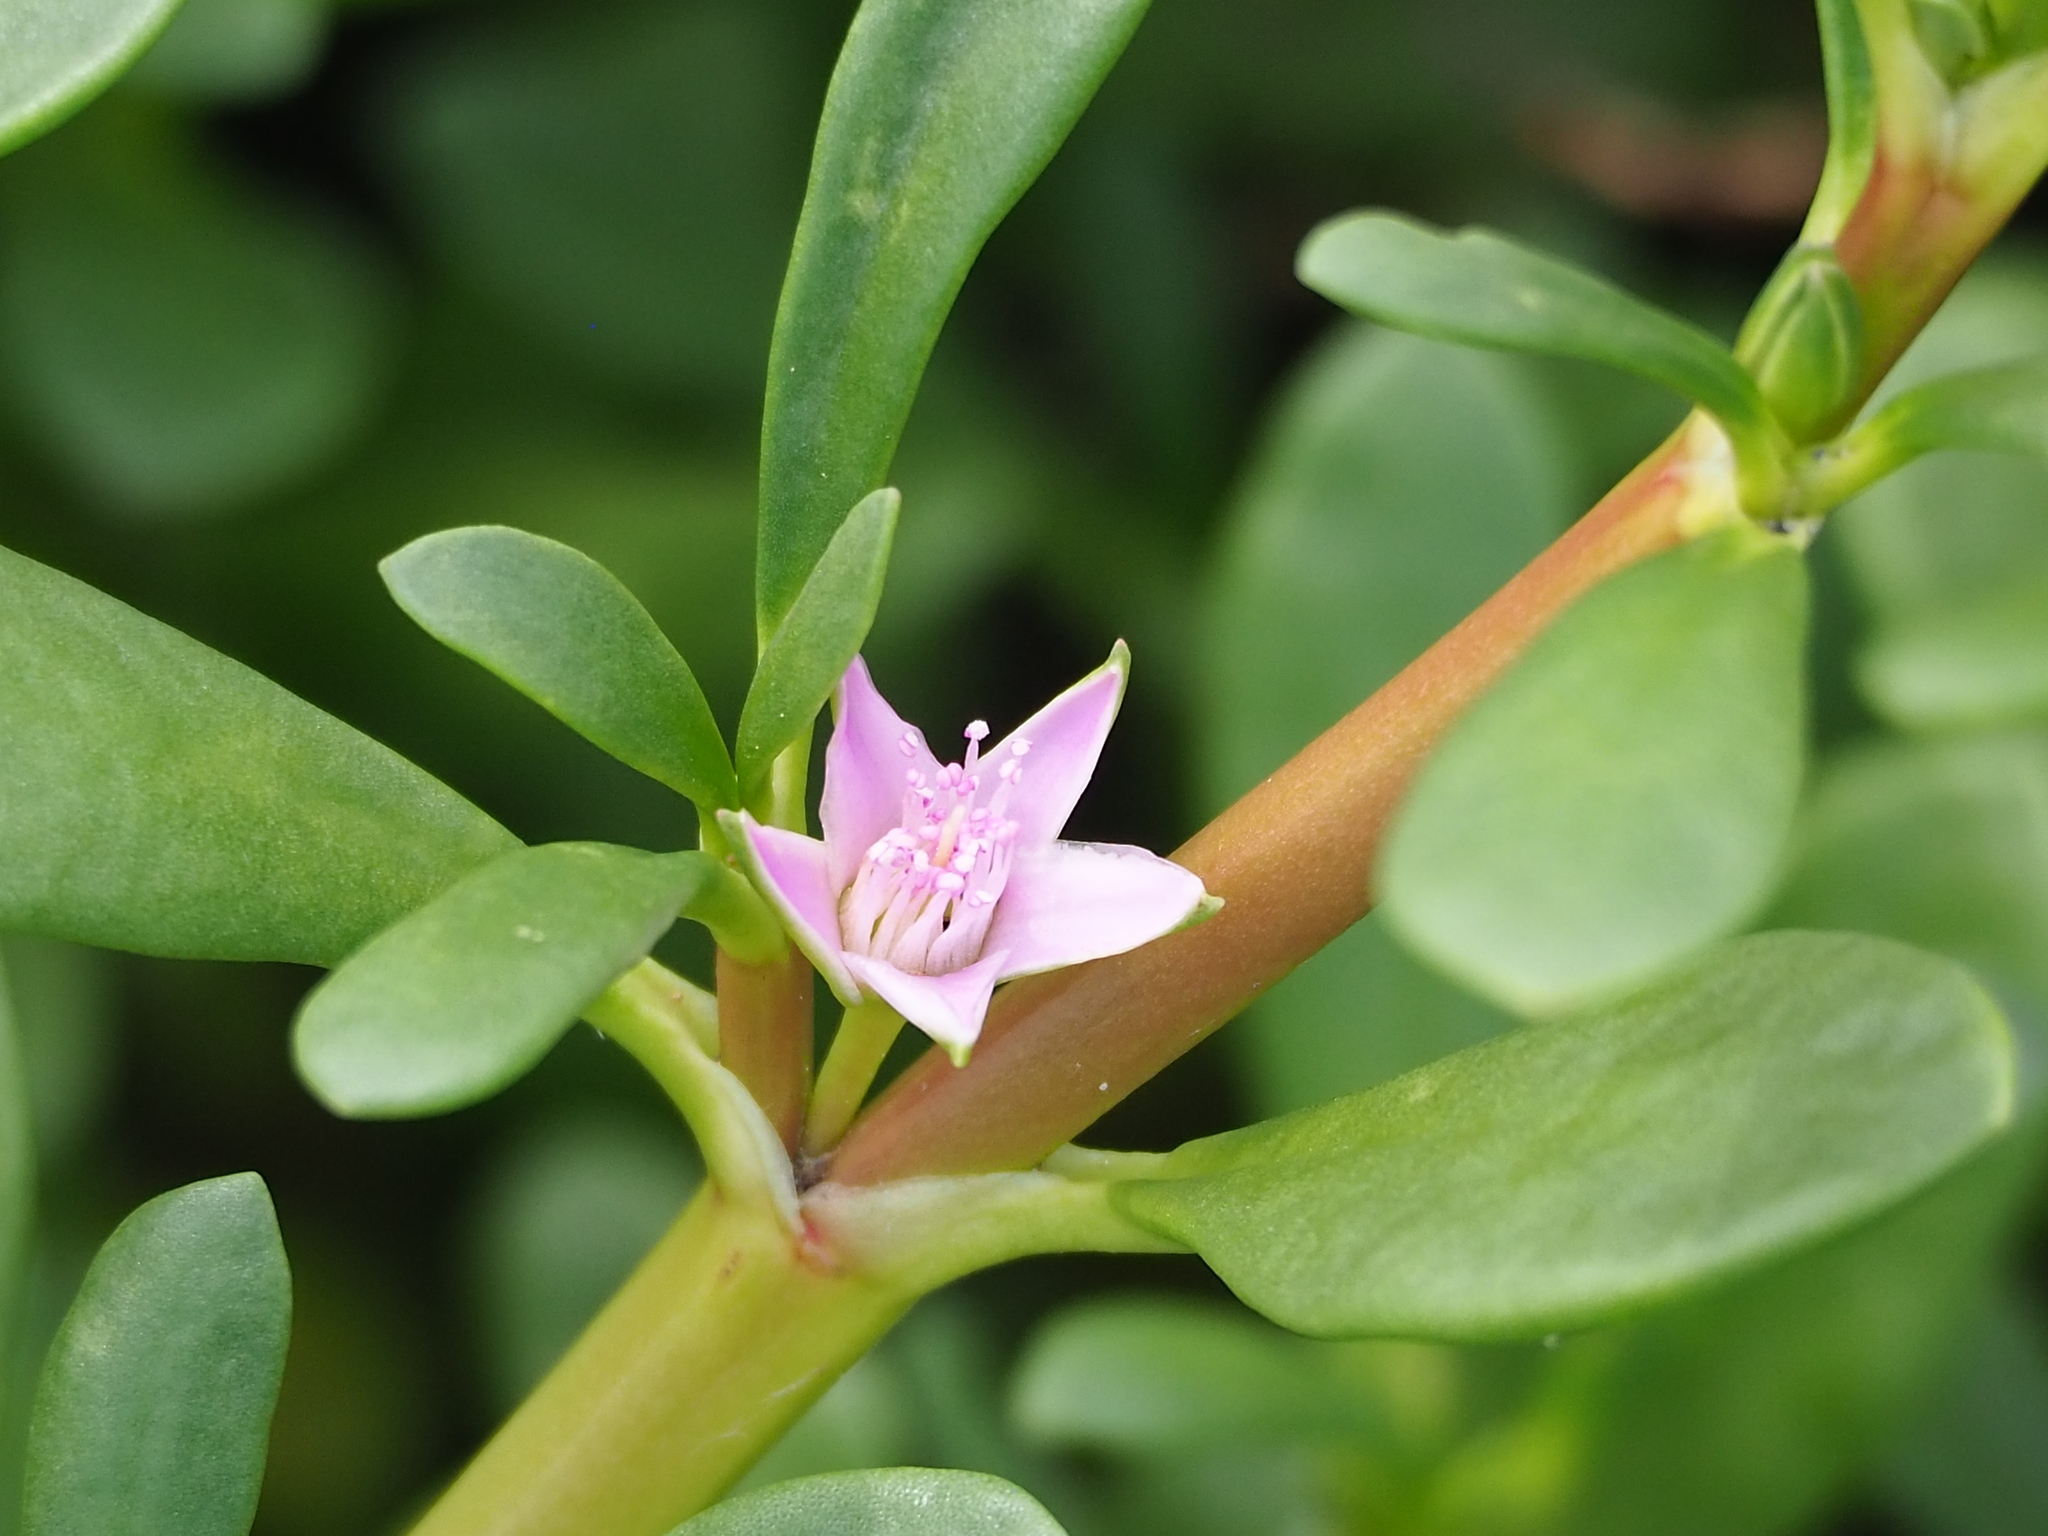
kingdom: Plantae
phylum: Tracheophyta
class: Magnoliopsida
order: Caryophyllales
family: Aizoaceae
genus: Sesuvium
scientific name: Sesuvium portulacastrum
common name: Sea-purslane
